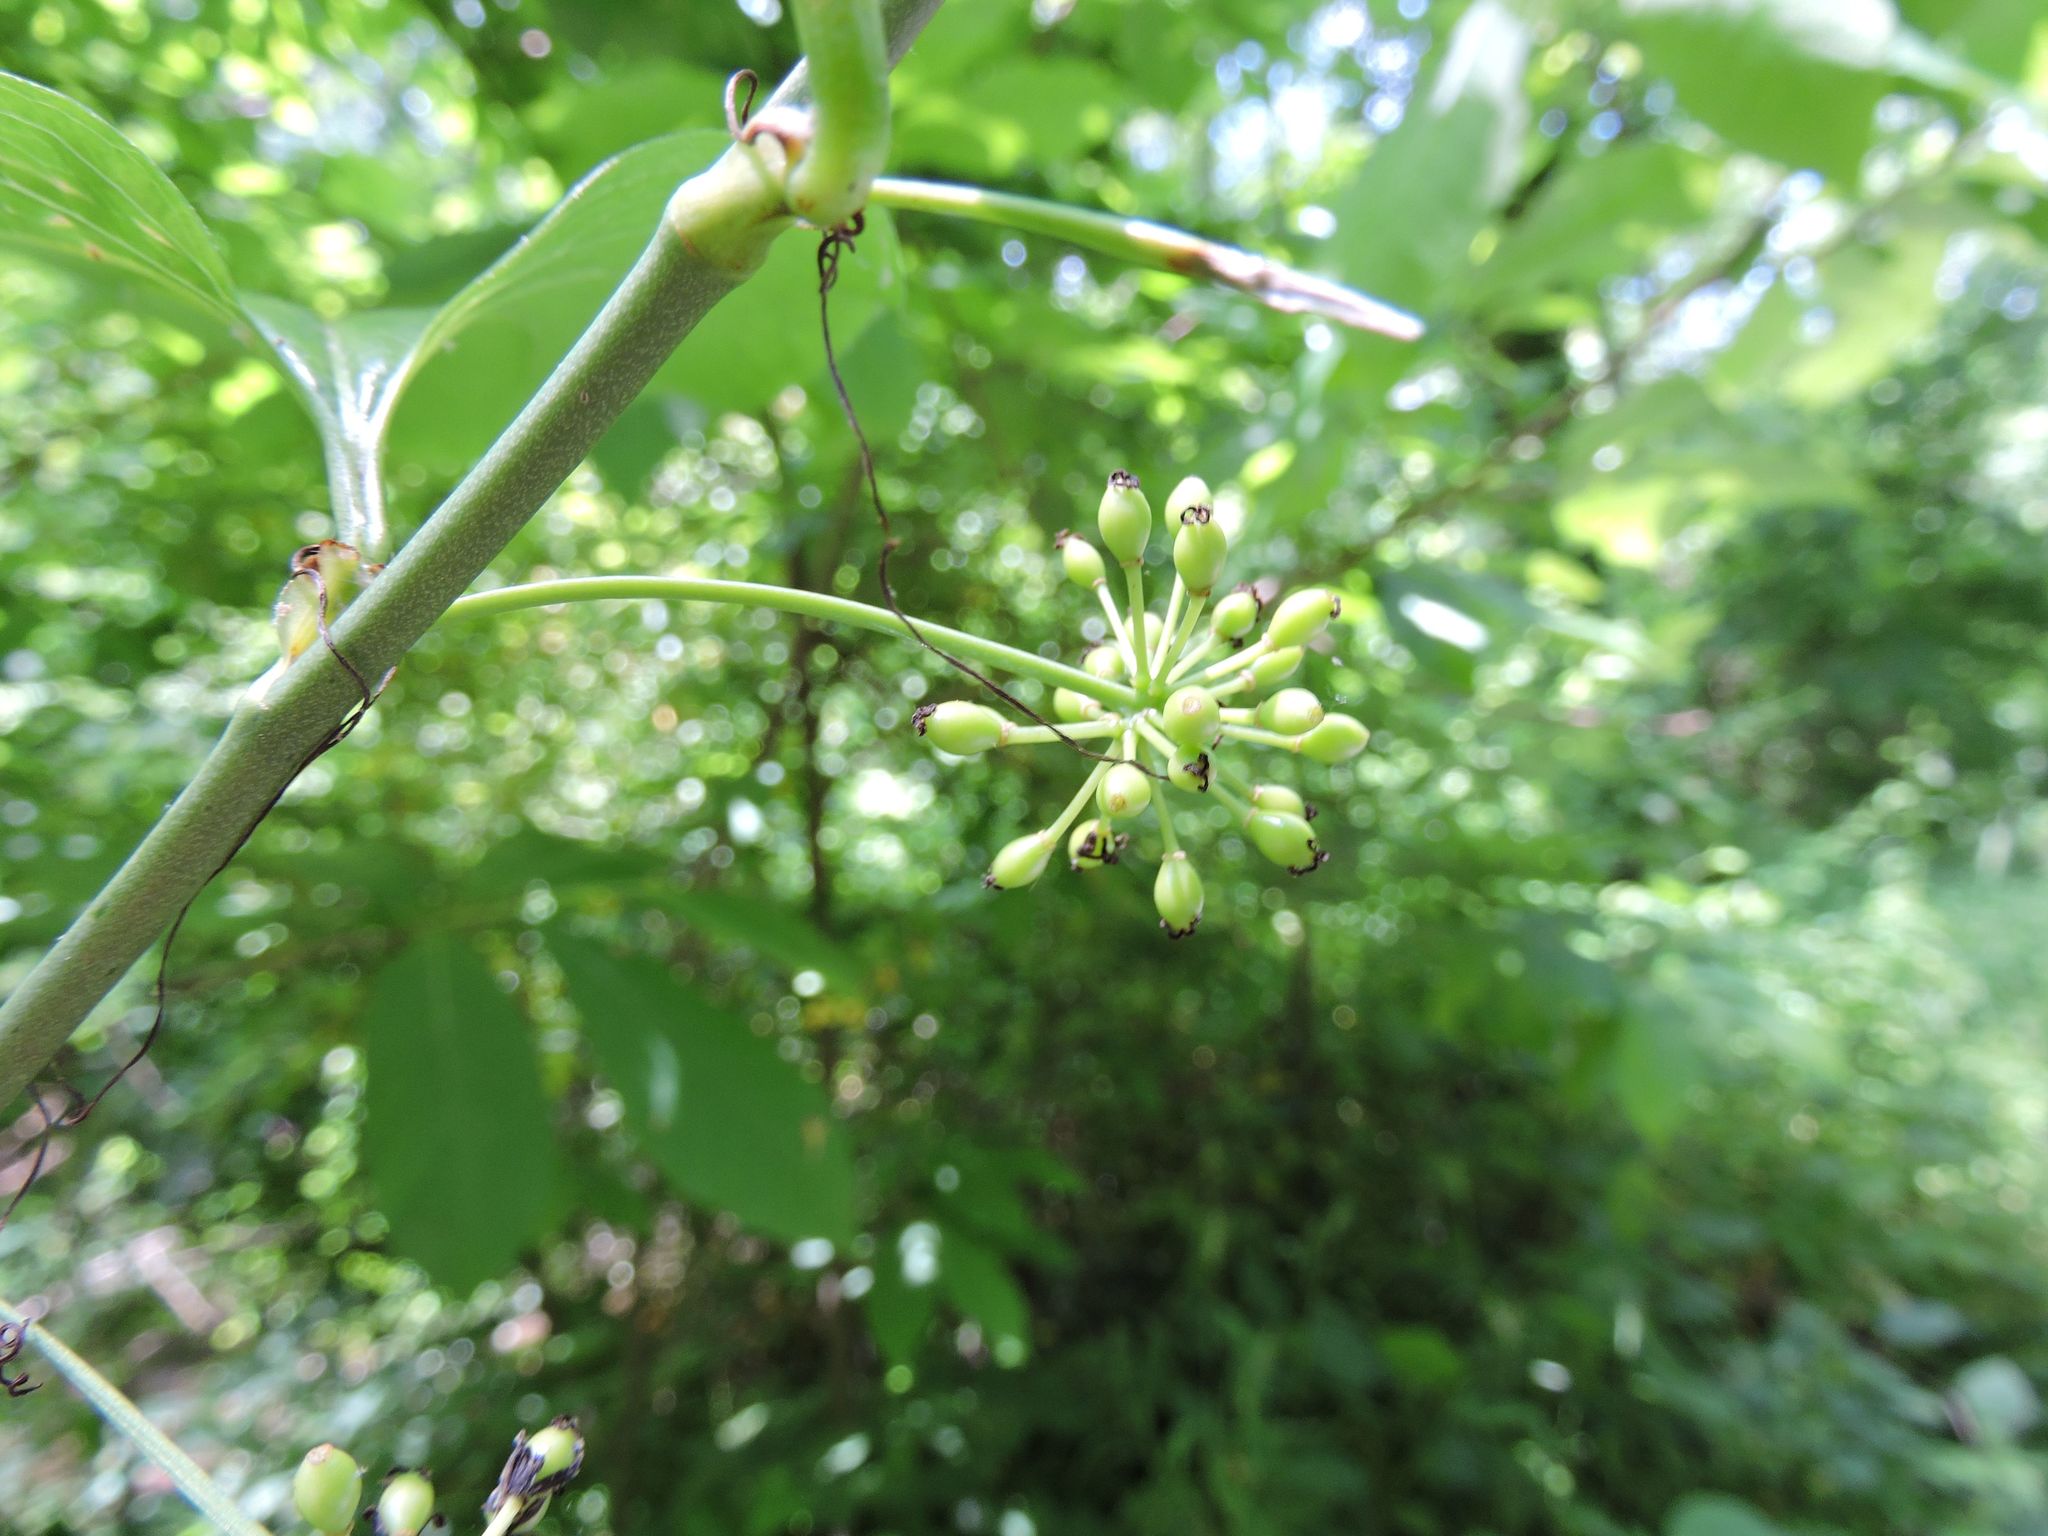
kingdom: Plantae
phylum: Tracheophyta
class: Liliopsida
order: Liliales
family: Smilacaceae
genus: Smilax
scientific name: Smilax rotundifolia
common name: Bullbriar
